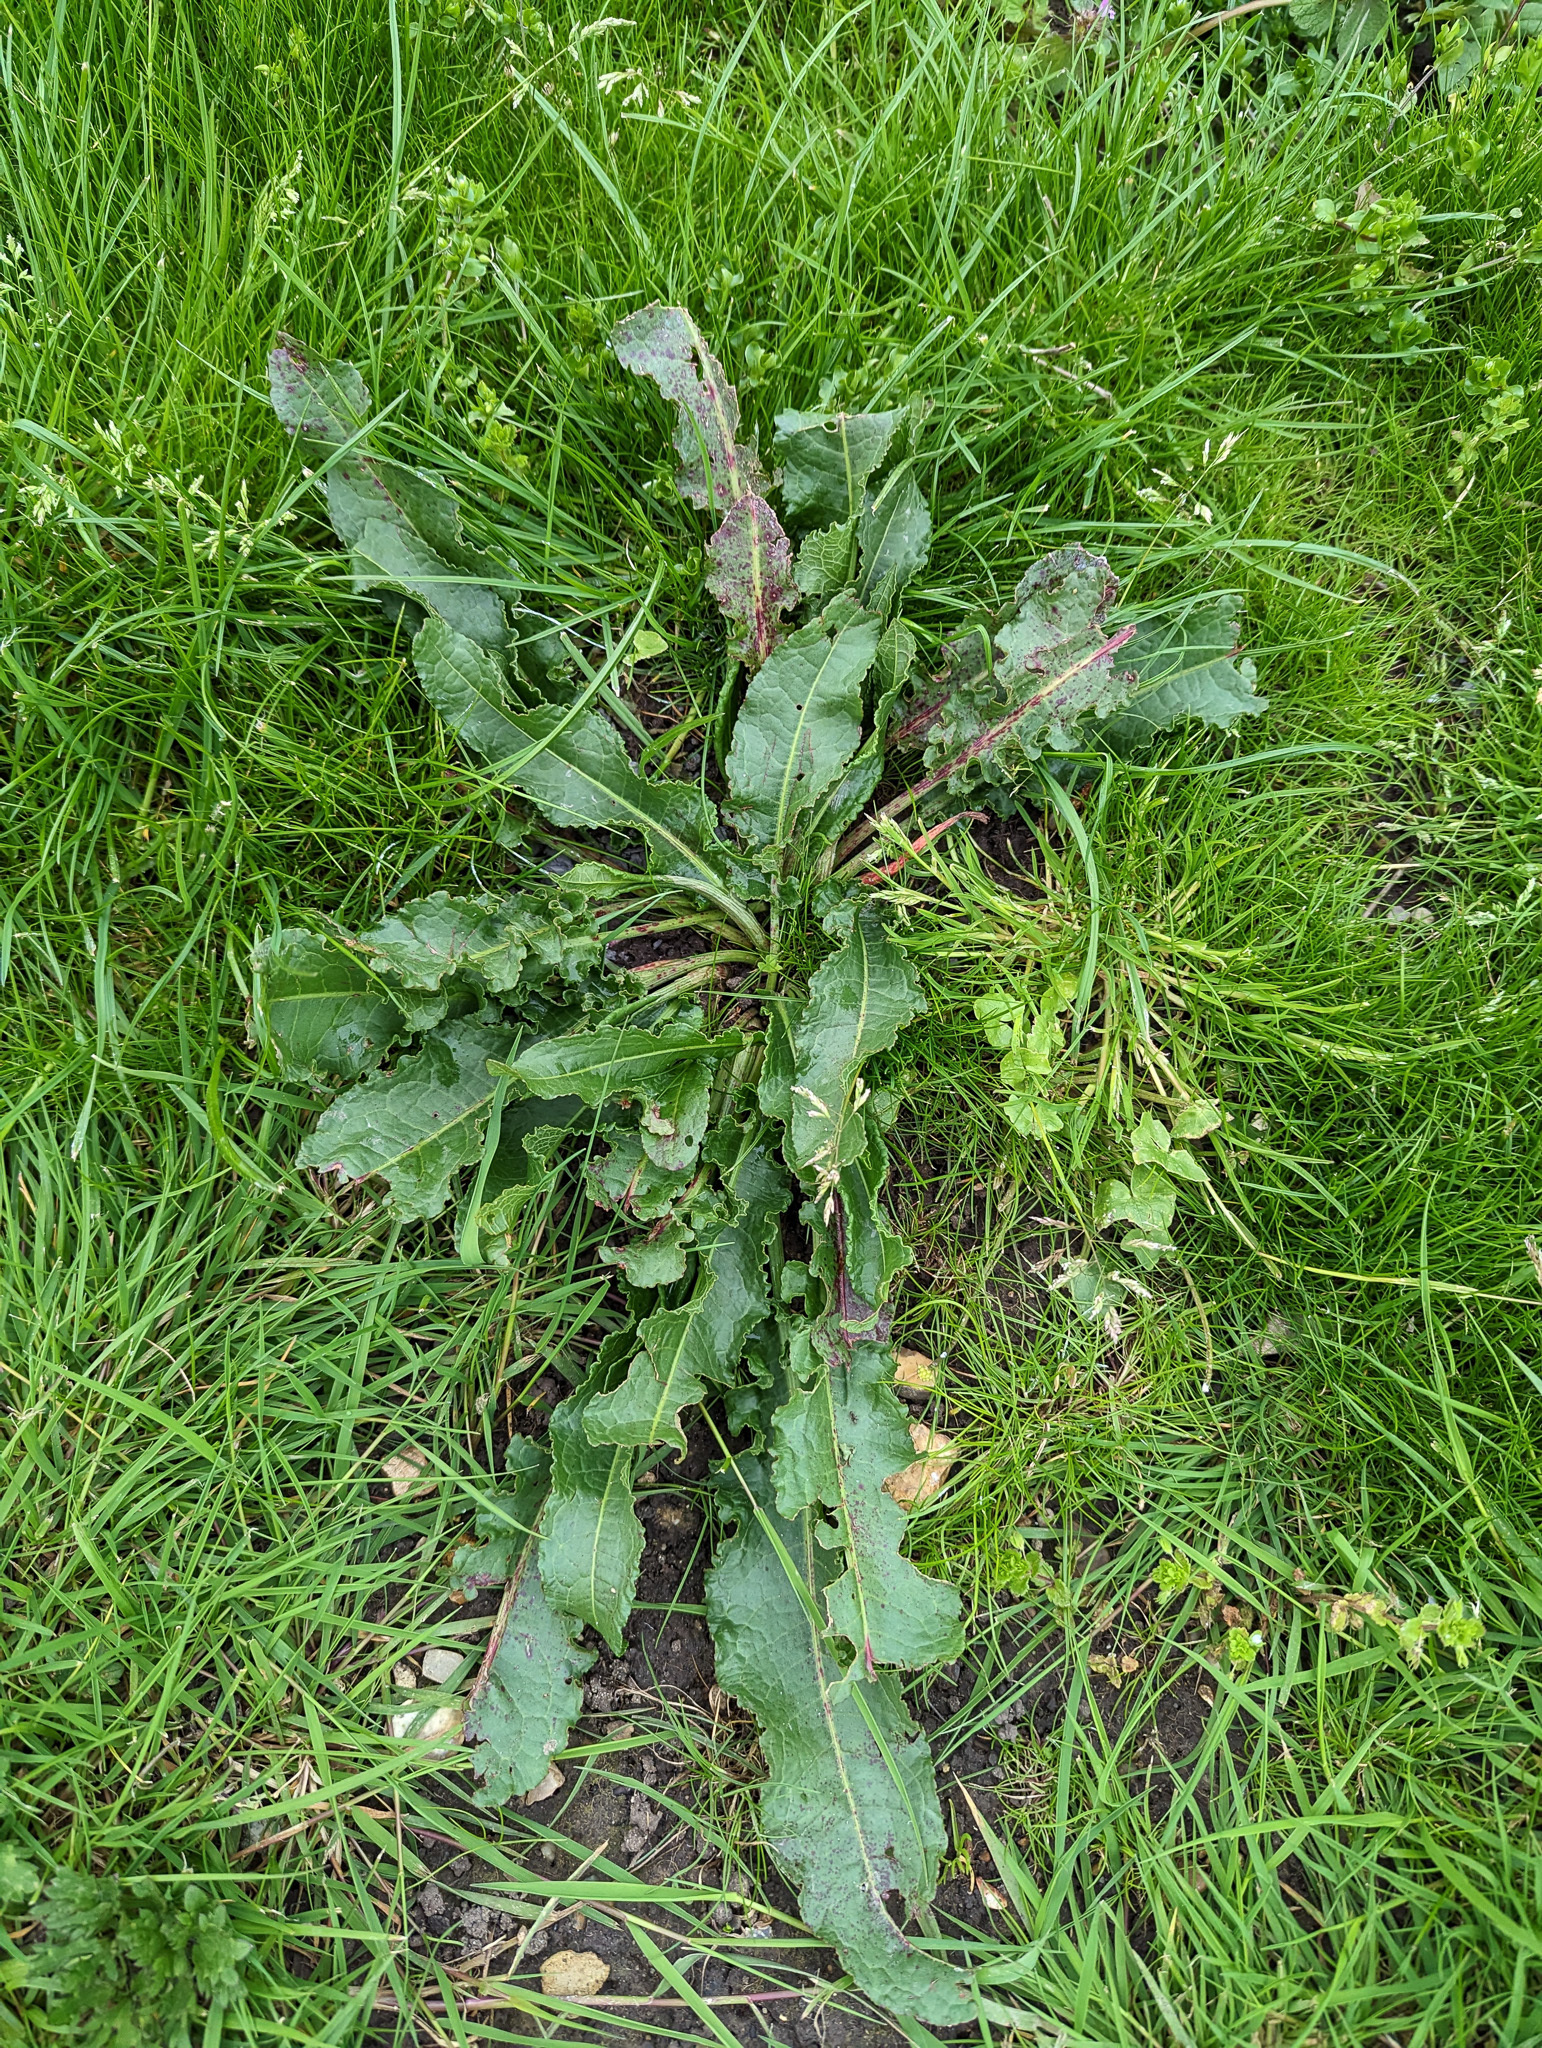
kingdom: Plantae
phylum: Tracheophyta
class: Magnoliopsida
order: Caryophyllales
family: Polygonaceae
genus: Rumex
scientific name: Rumex crispus
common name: Curled dock
